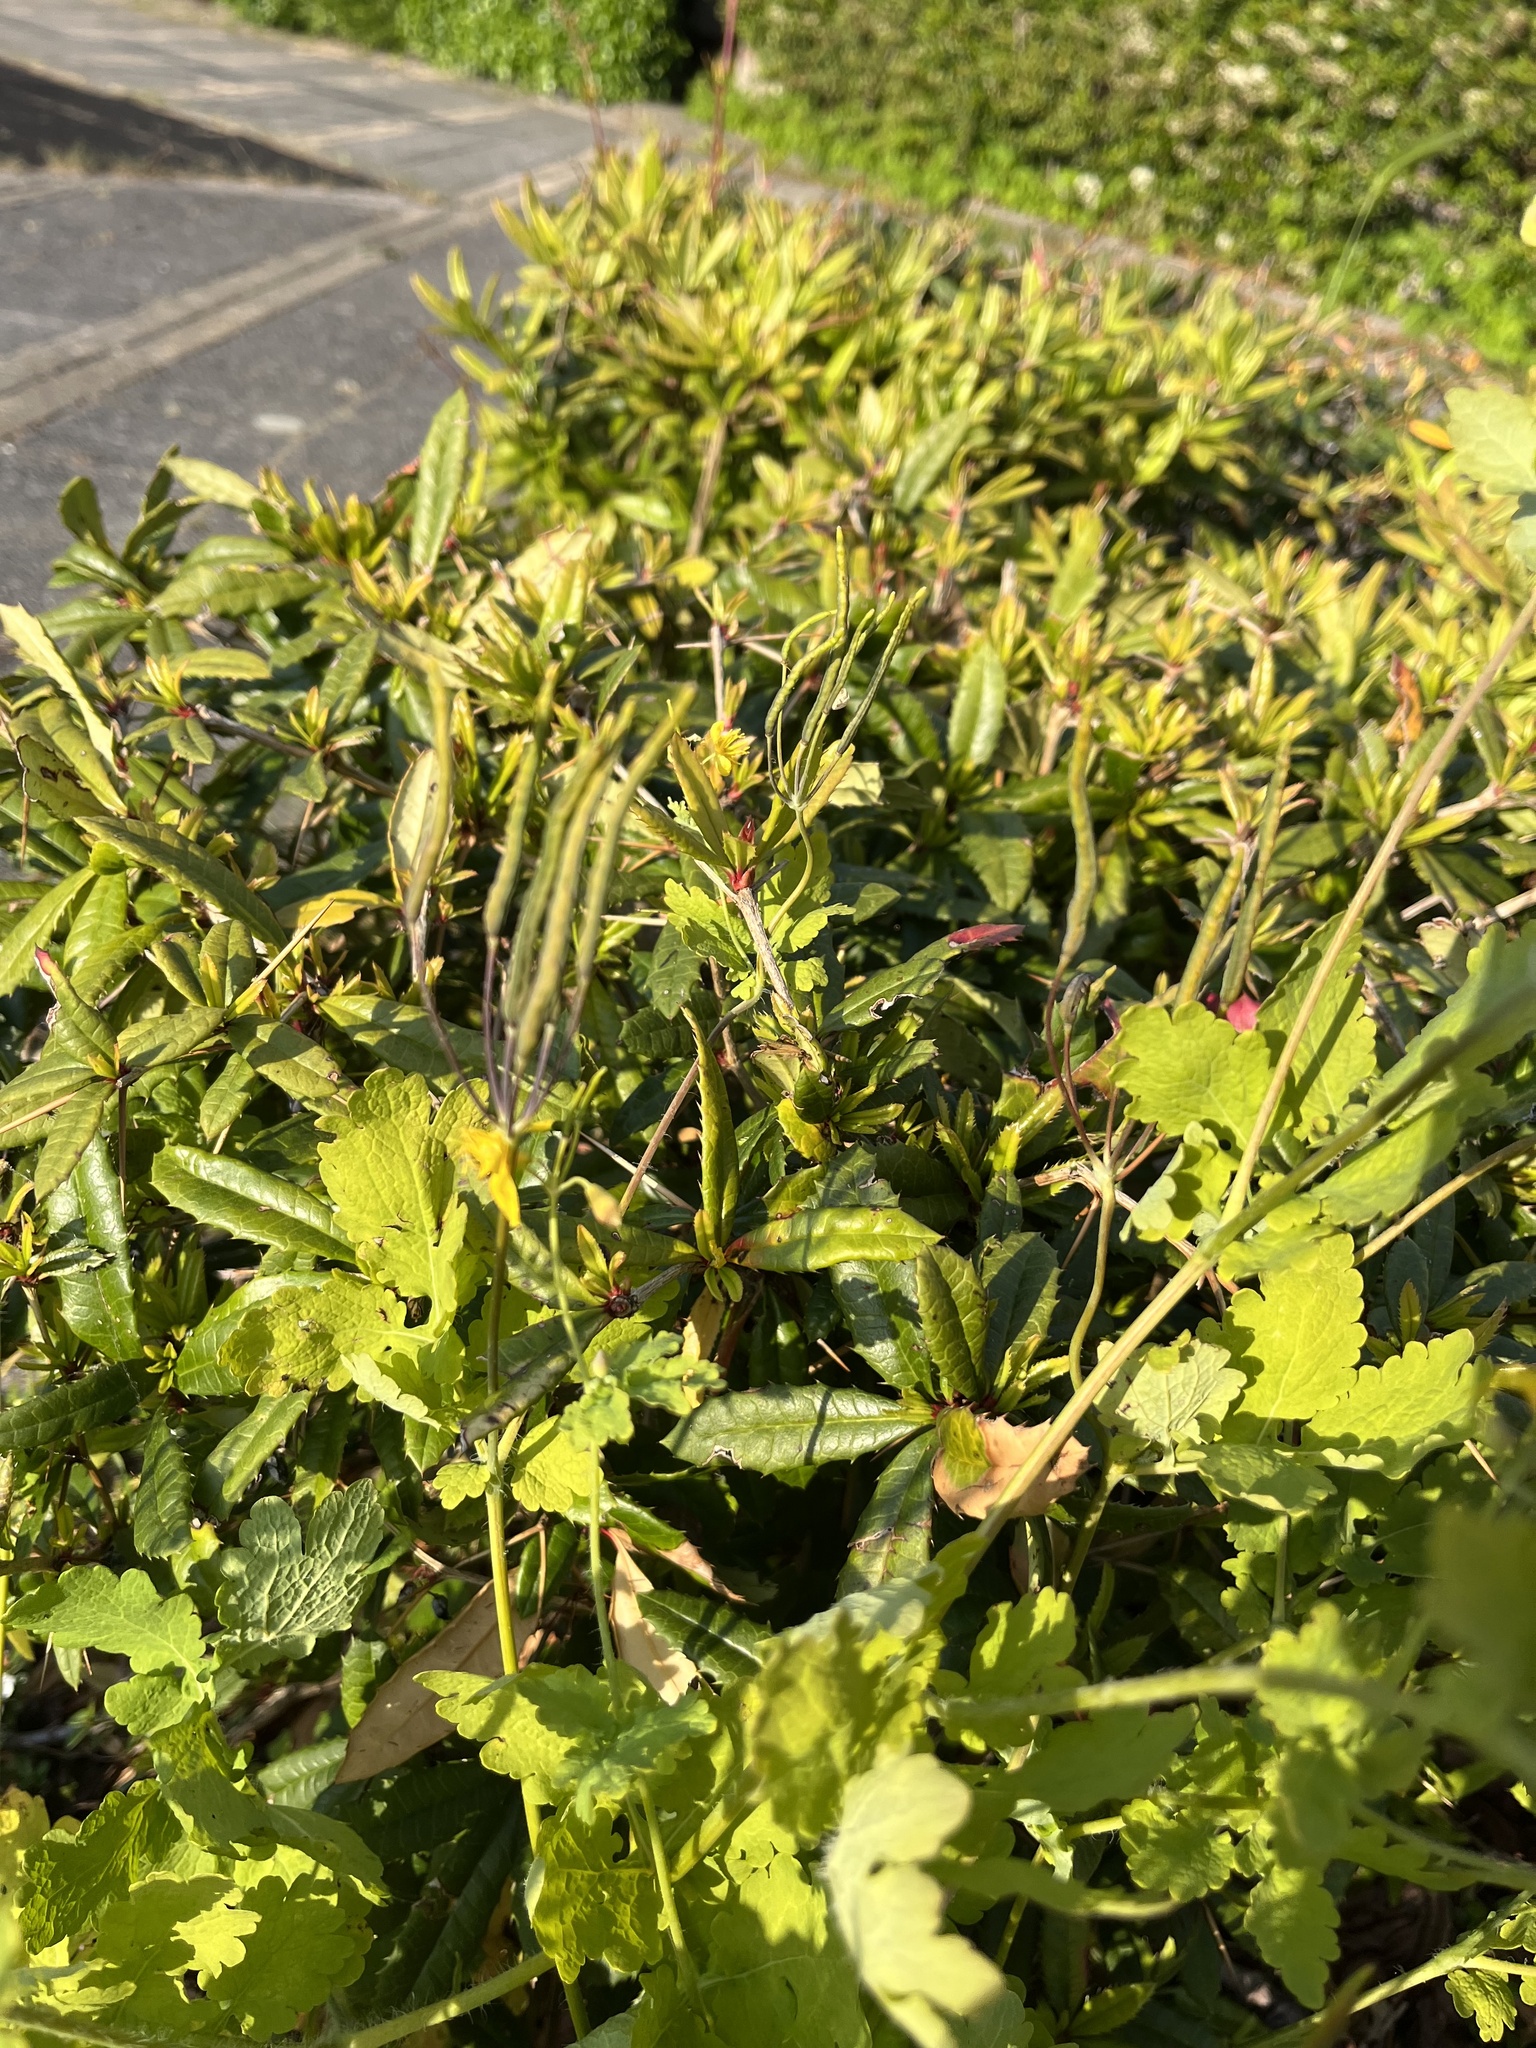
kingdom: Plantae
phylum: Tracheophyta
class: Magnoliopsida
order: Ranunculales
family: Papaveraceae
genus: Chelidonium
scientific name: Chelidonium majus
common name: Greater celandine
